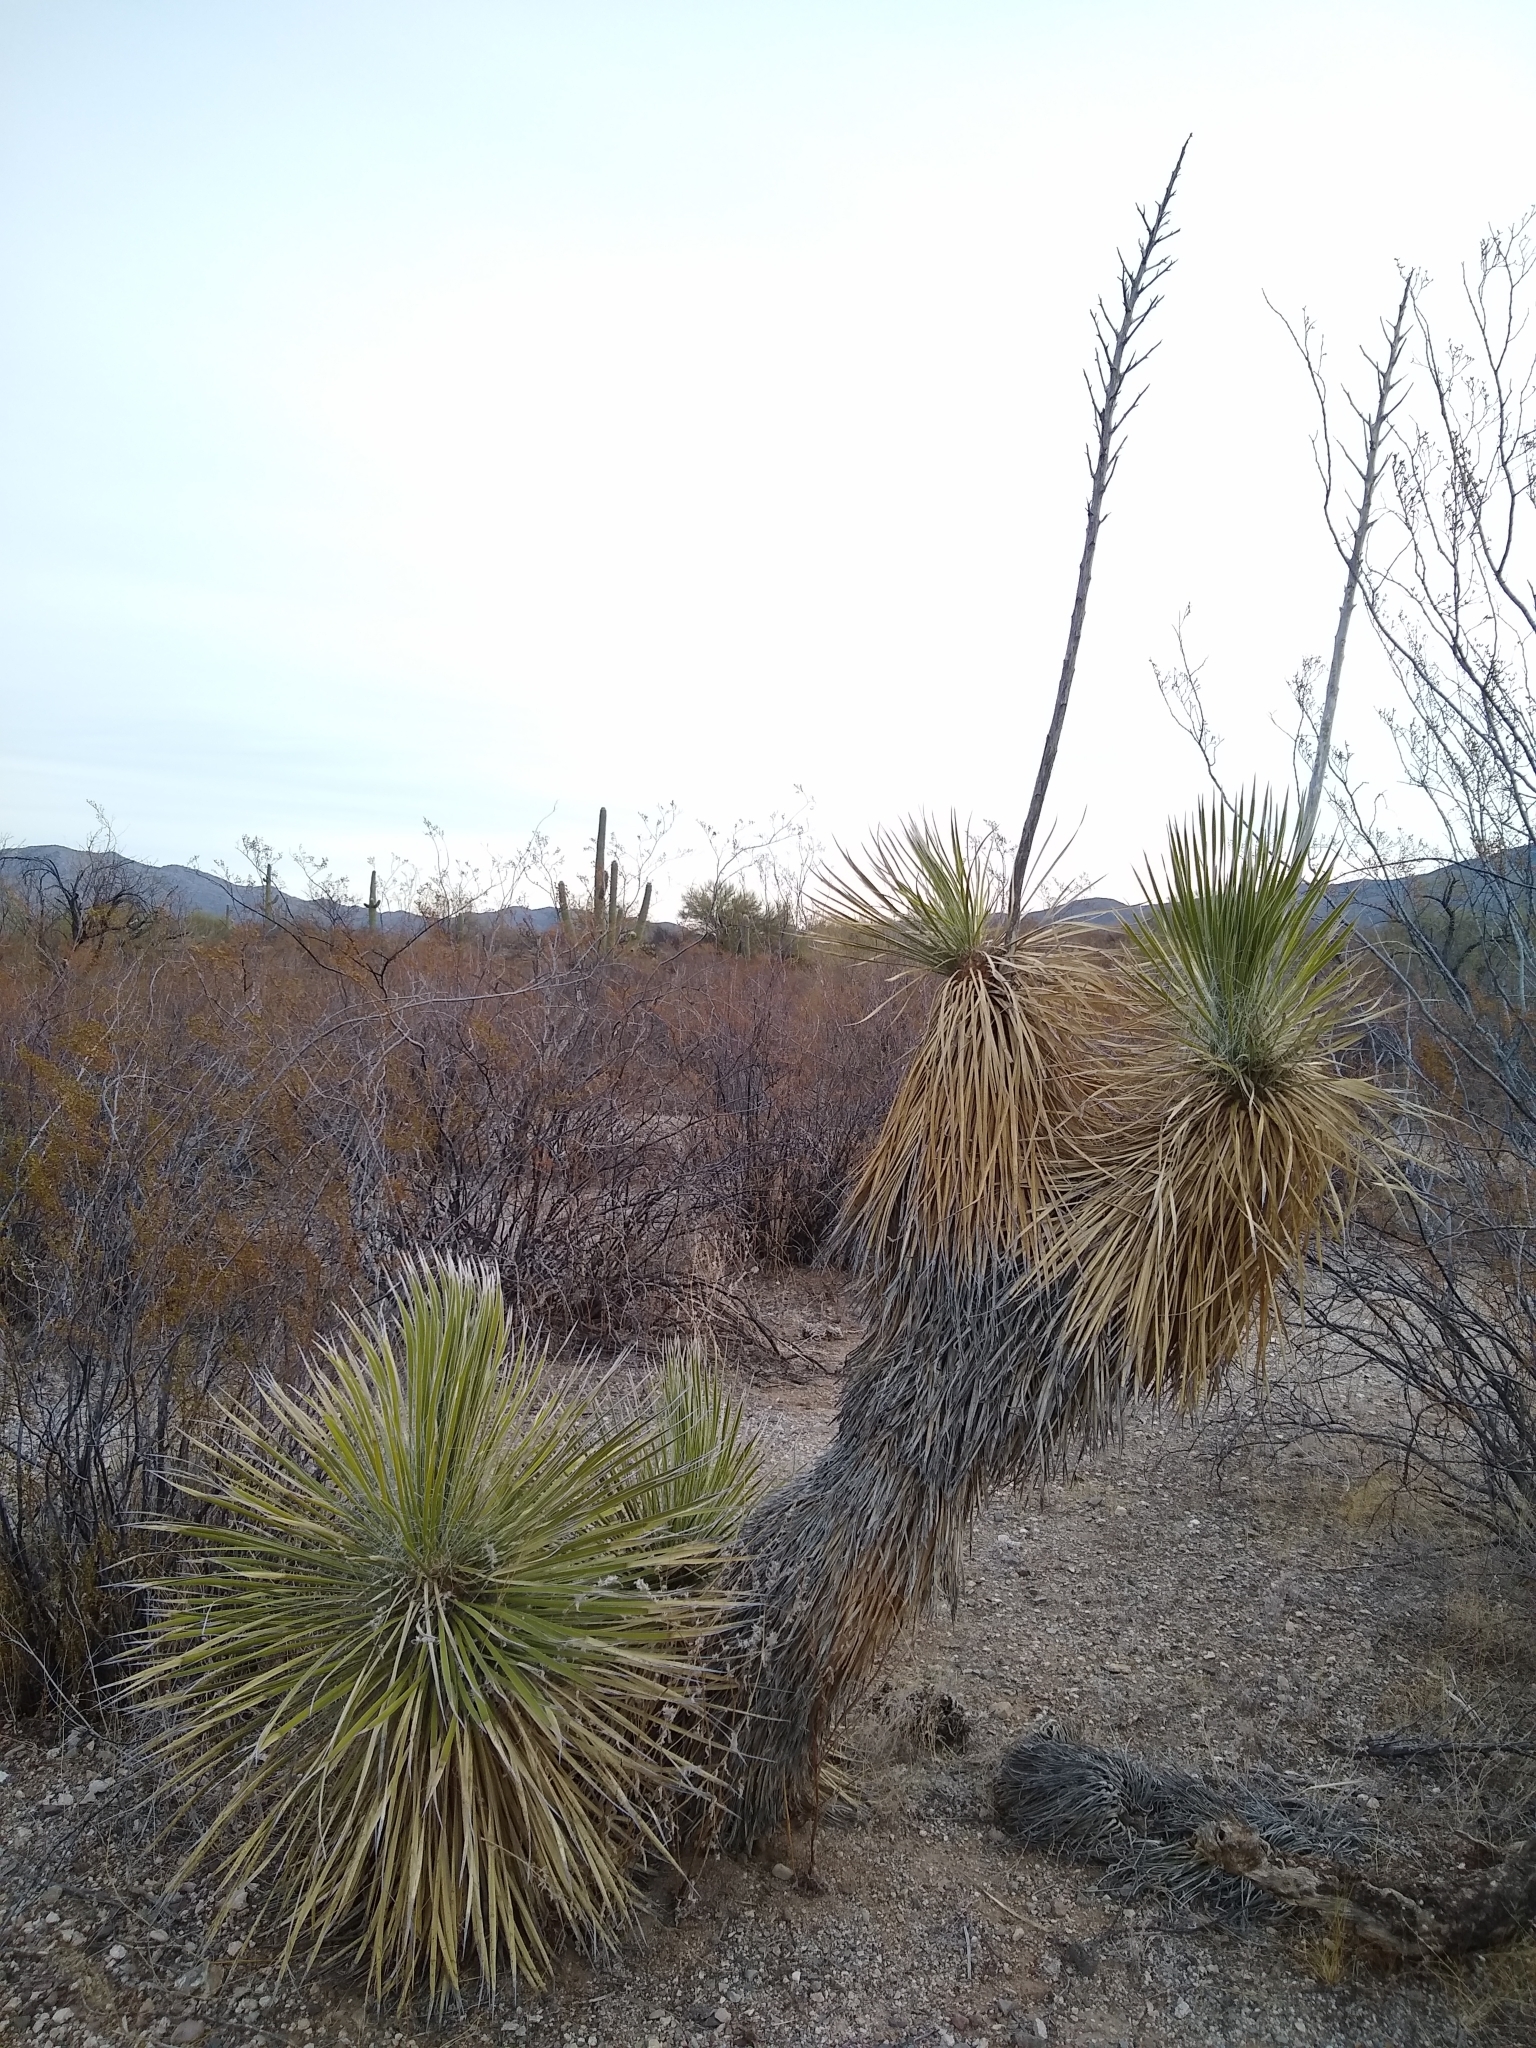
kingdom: Plantae
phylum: Tracheophyta
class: Liliopsida
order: Asparagales
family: Asparagaceae
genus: Yucca
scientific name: Yucca elata
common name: Palmella
